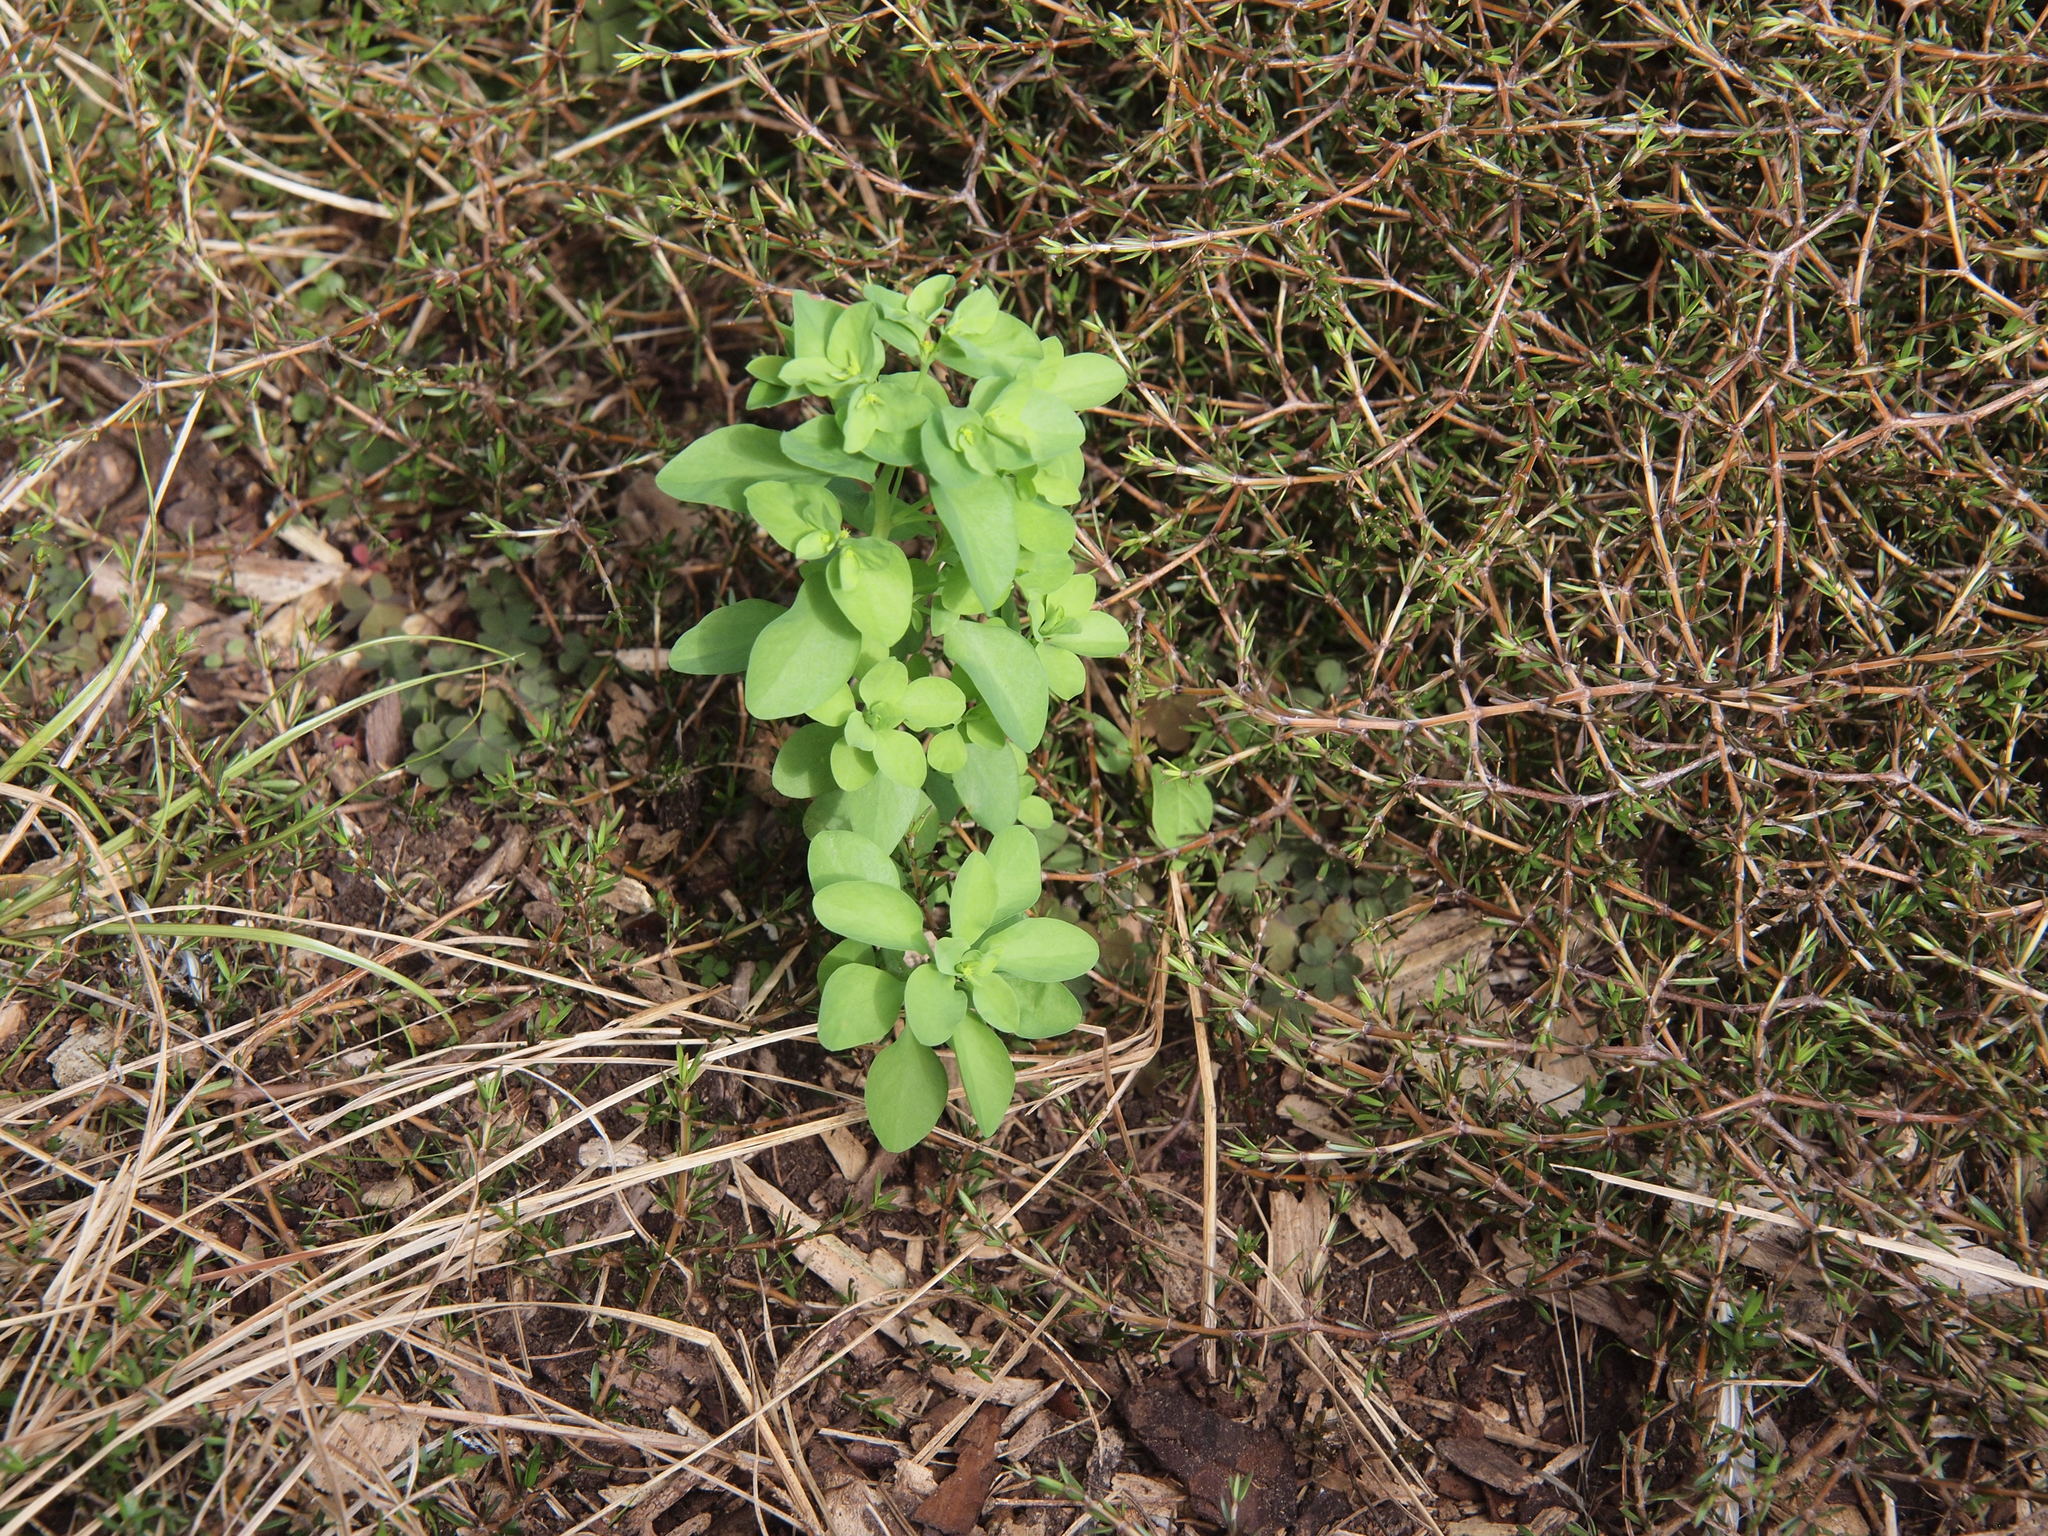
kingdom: Plantae
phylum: Tracheophyta
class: Magnoliopsida
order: Malpighiales
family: Euphorbiaceae
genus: Euphorbia
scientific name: Euphorbia peplus
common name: Petty spurge
